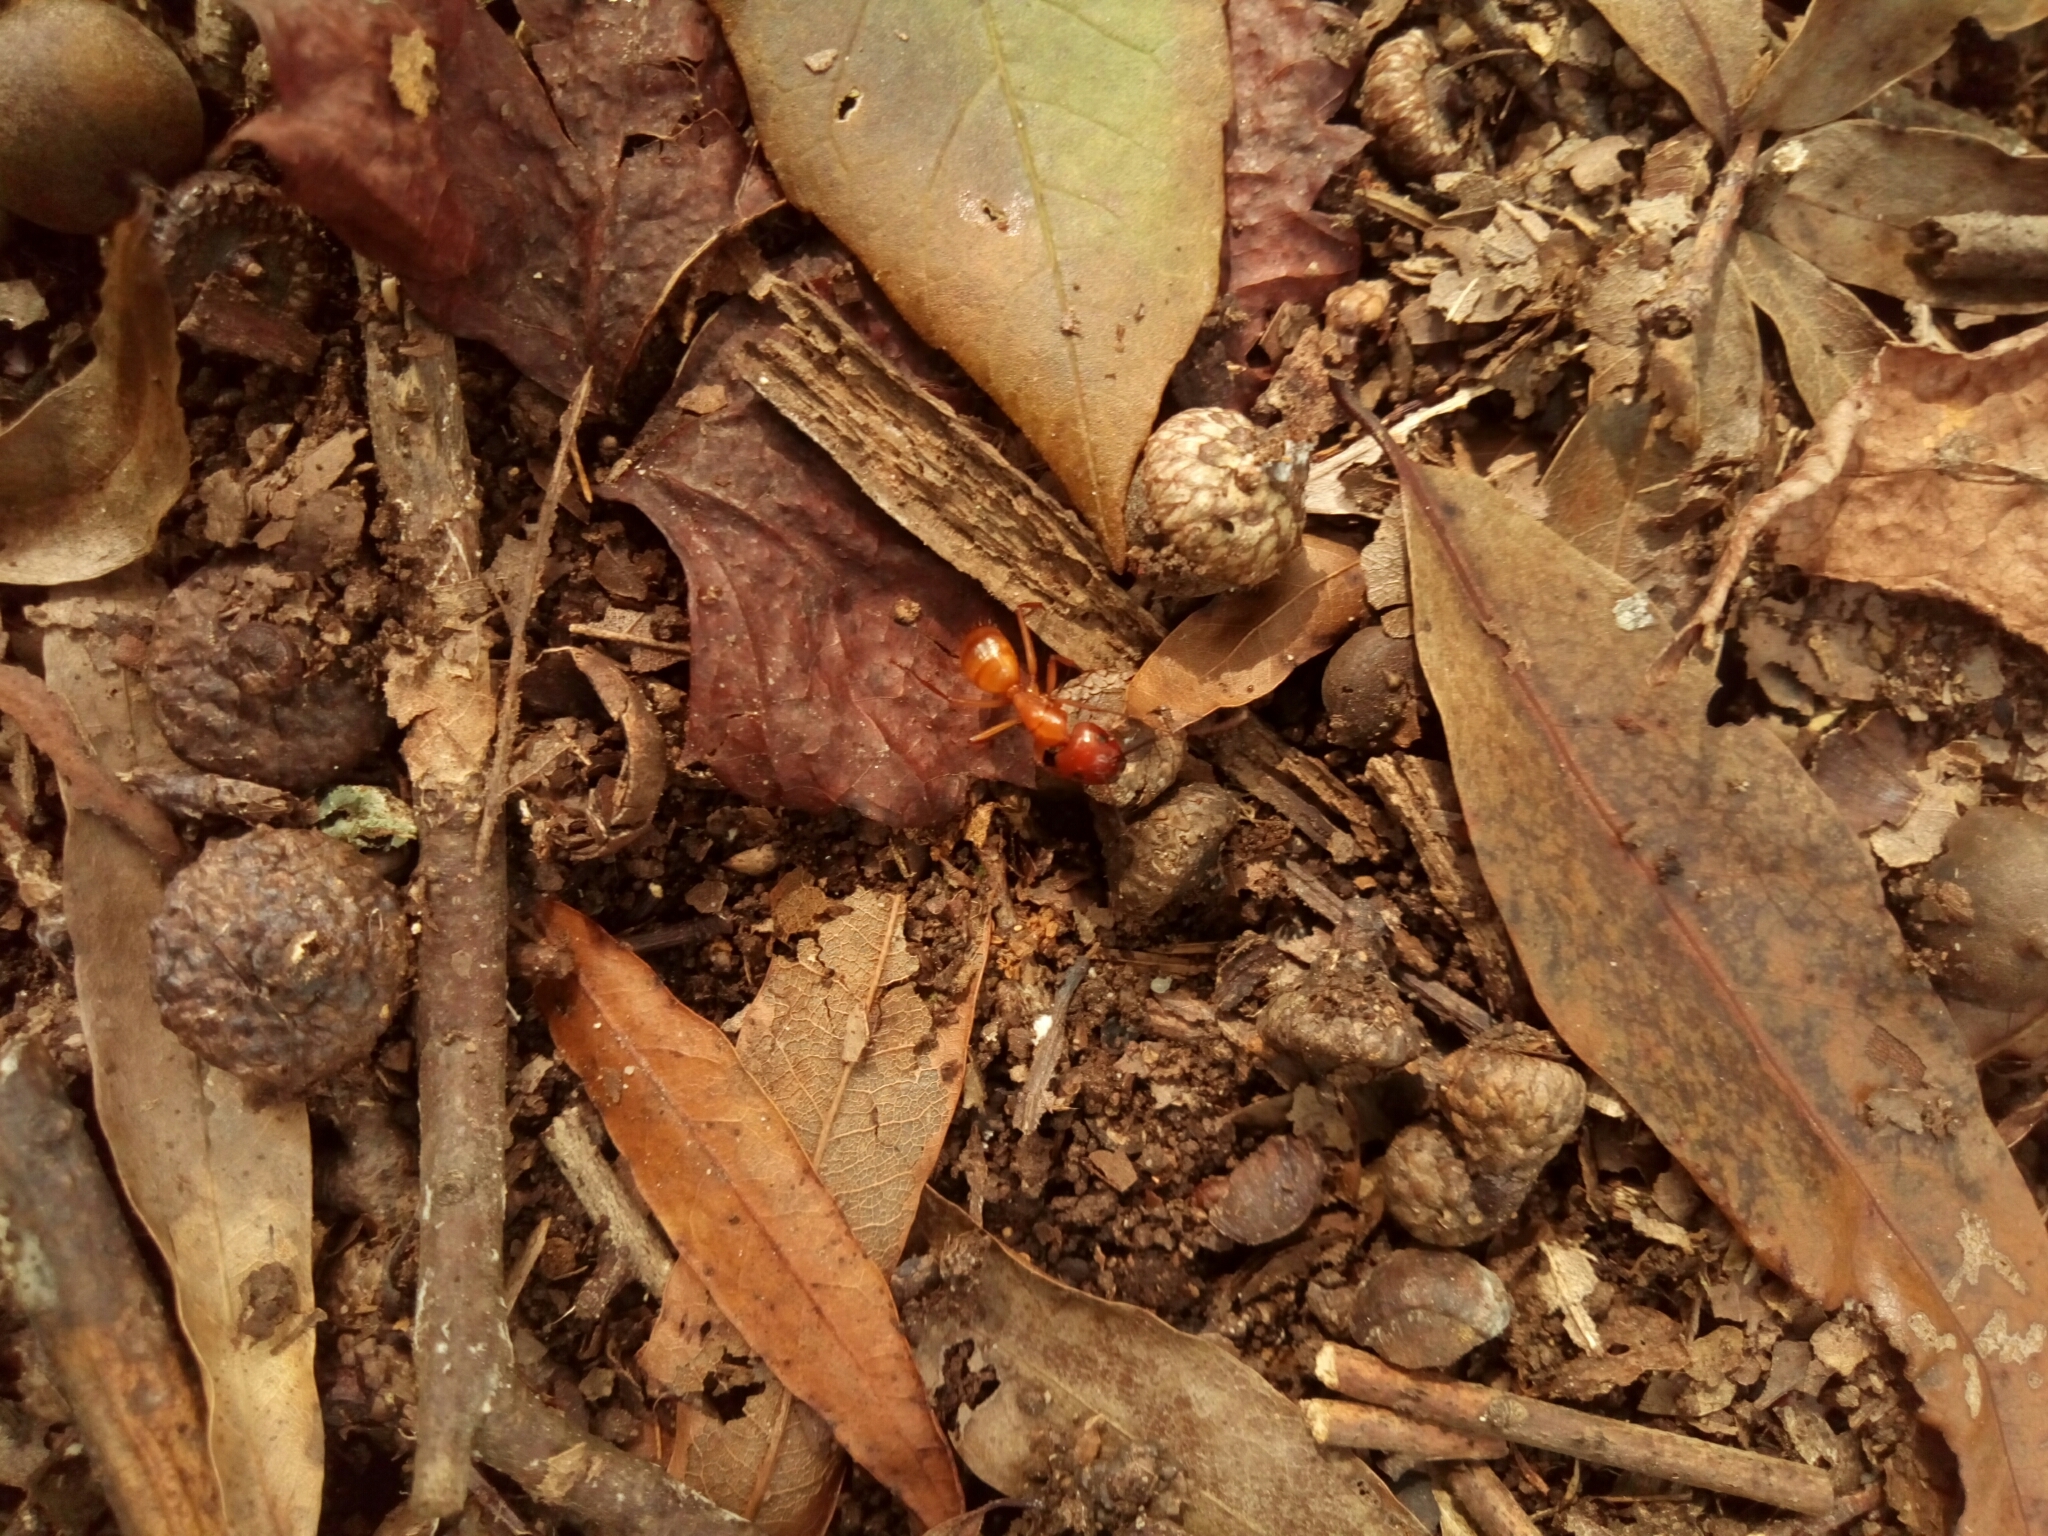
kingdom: Animalia
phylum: Arthropoda
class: Insecta
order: Hymenoptera
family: Formicidae
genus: Camponotus
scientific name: Camponotus castaneus
